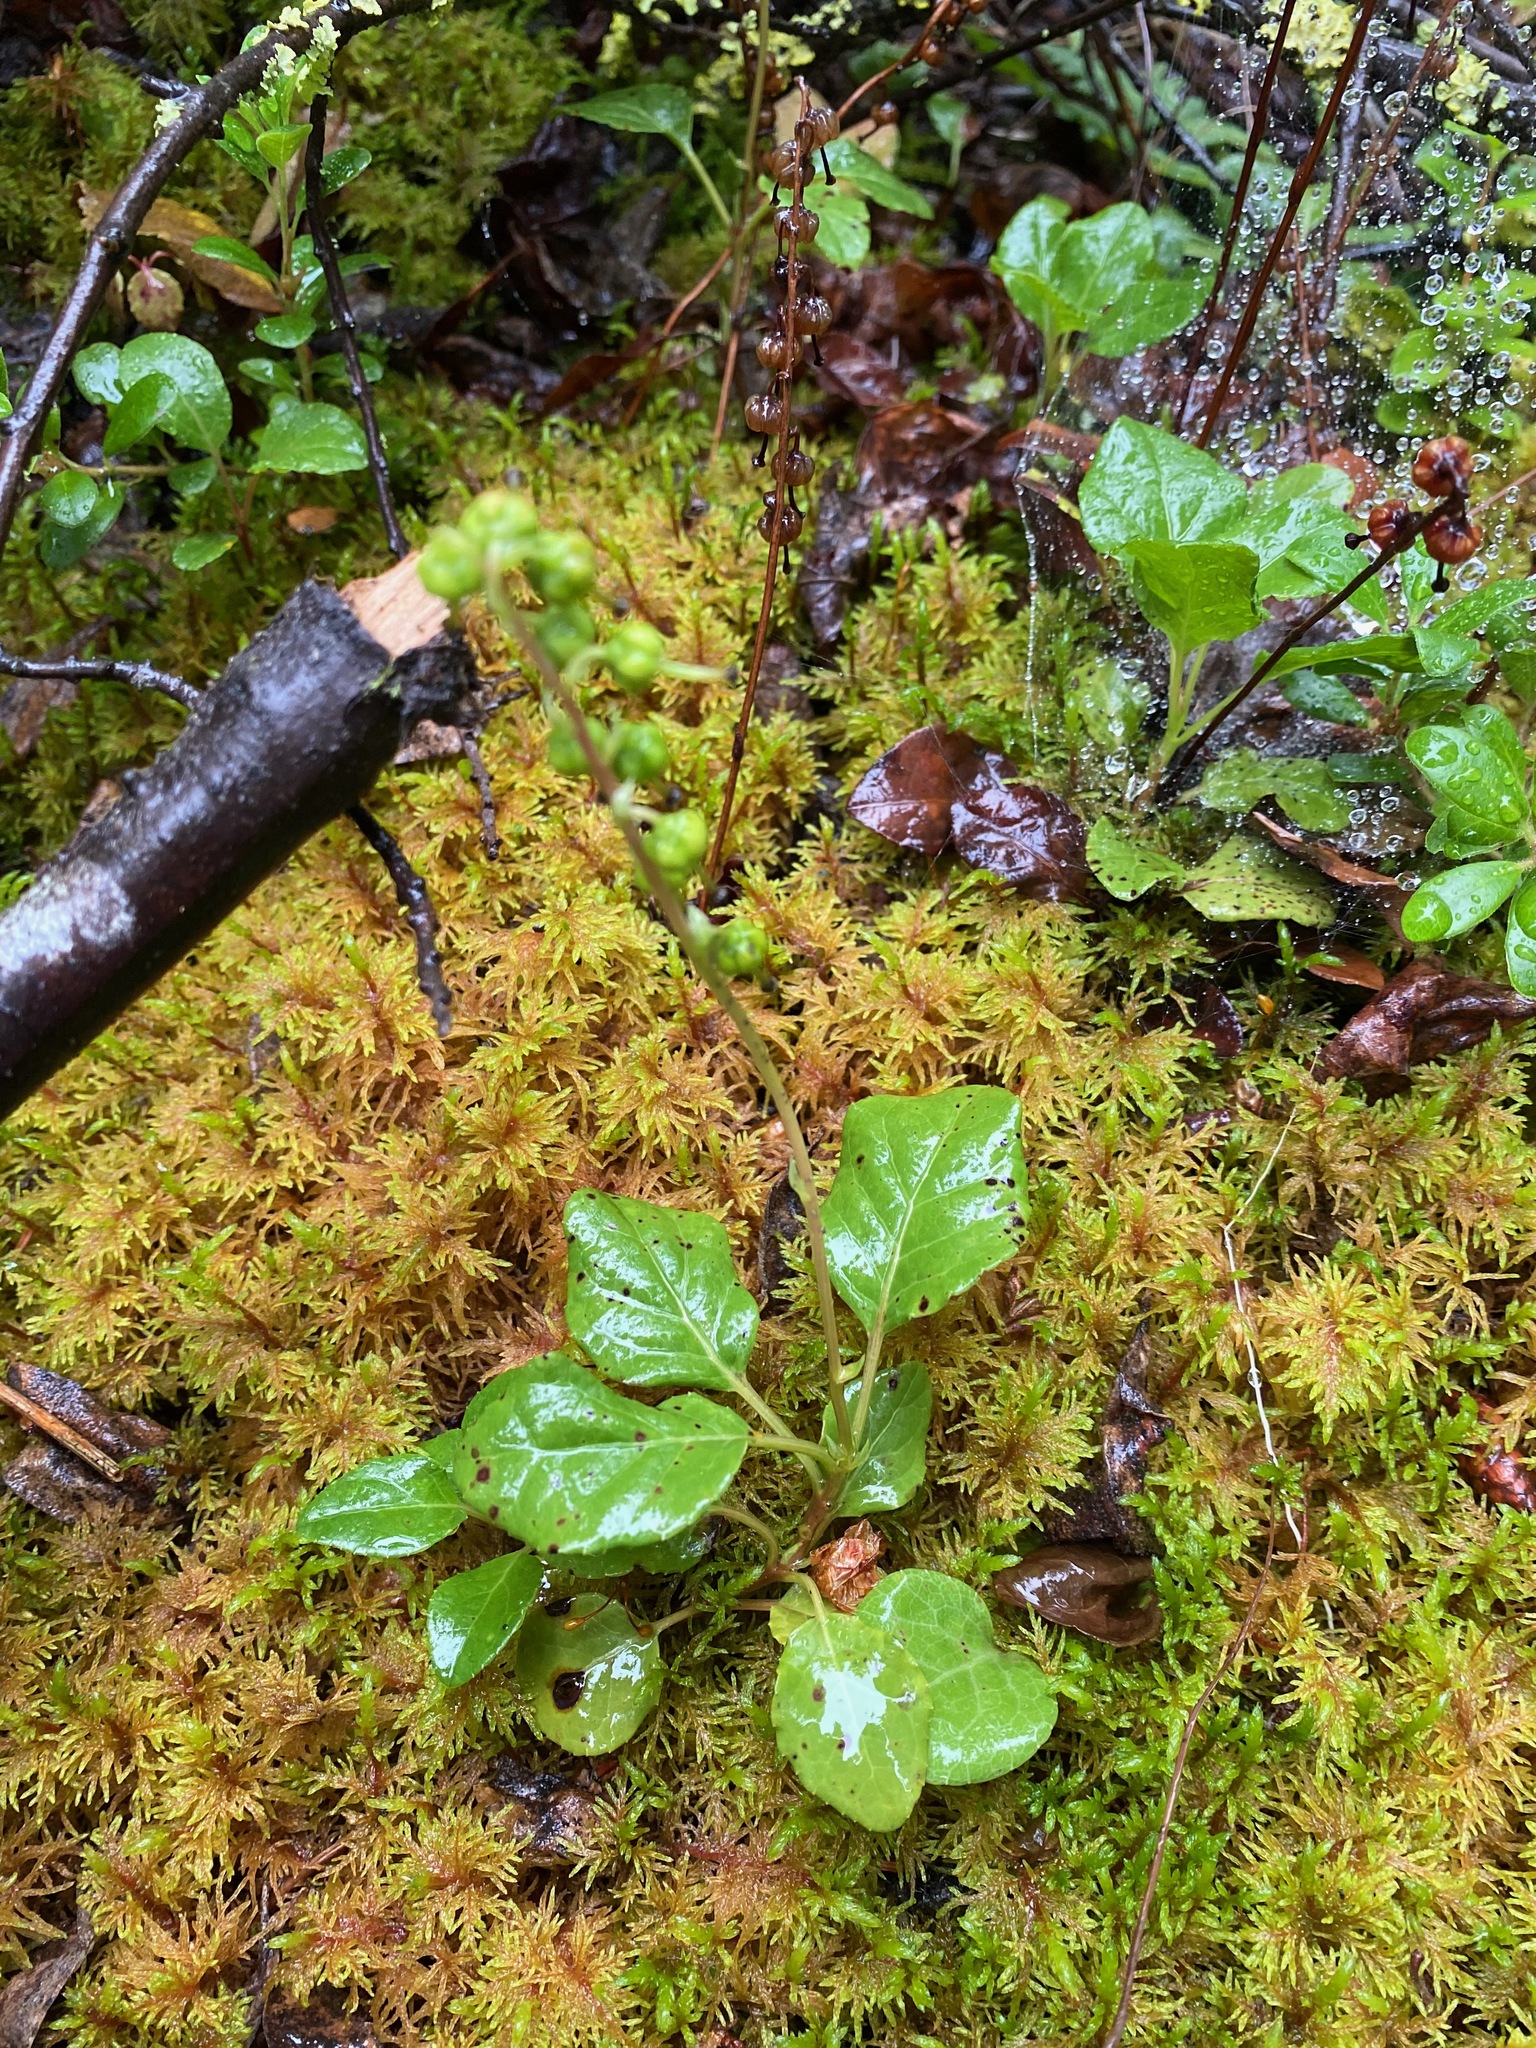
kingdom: Plantae
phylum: Tracheophyta
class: Magnoliopsida
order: Ericales
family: Ericaceae
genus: Orthilia
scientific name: Orthilia secunda
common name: One-sided orthilia
